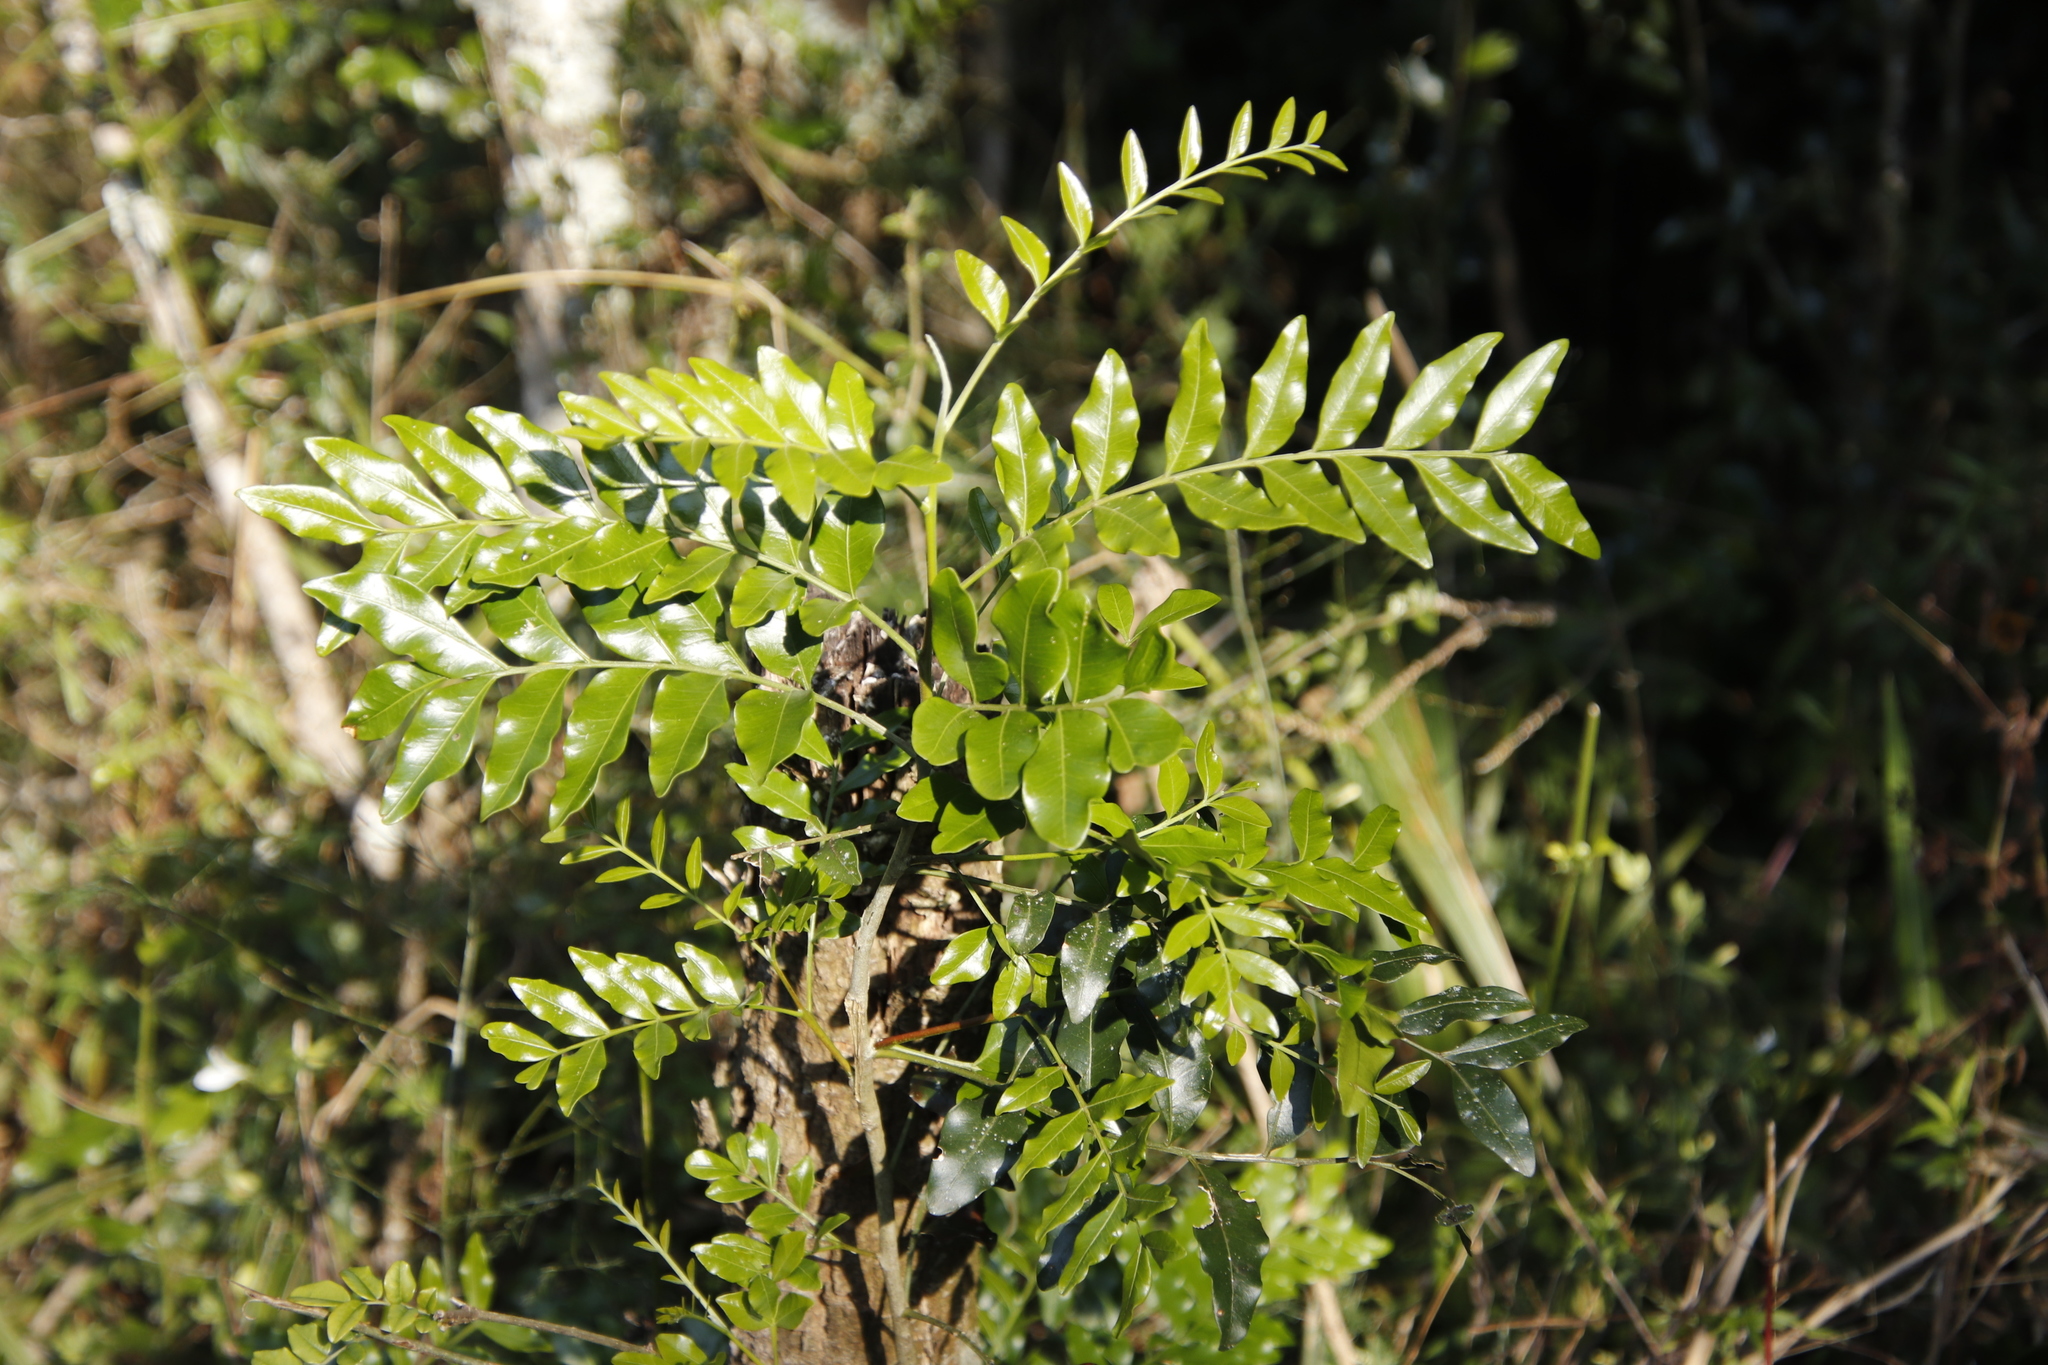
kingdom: Plantae
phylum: Tracheophyta
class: Magnoliopsida
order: Sapindales
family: Rutaceae
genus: Ptaeroxylon
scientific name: Ptaeroxylon obliquum
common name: Sneezewood
